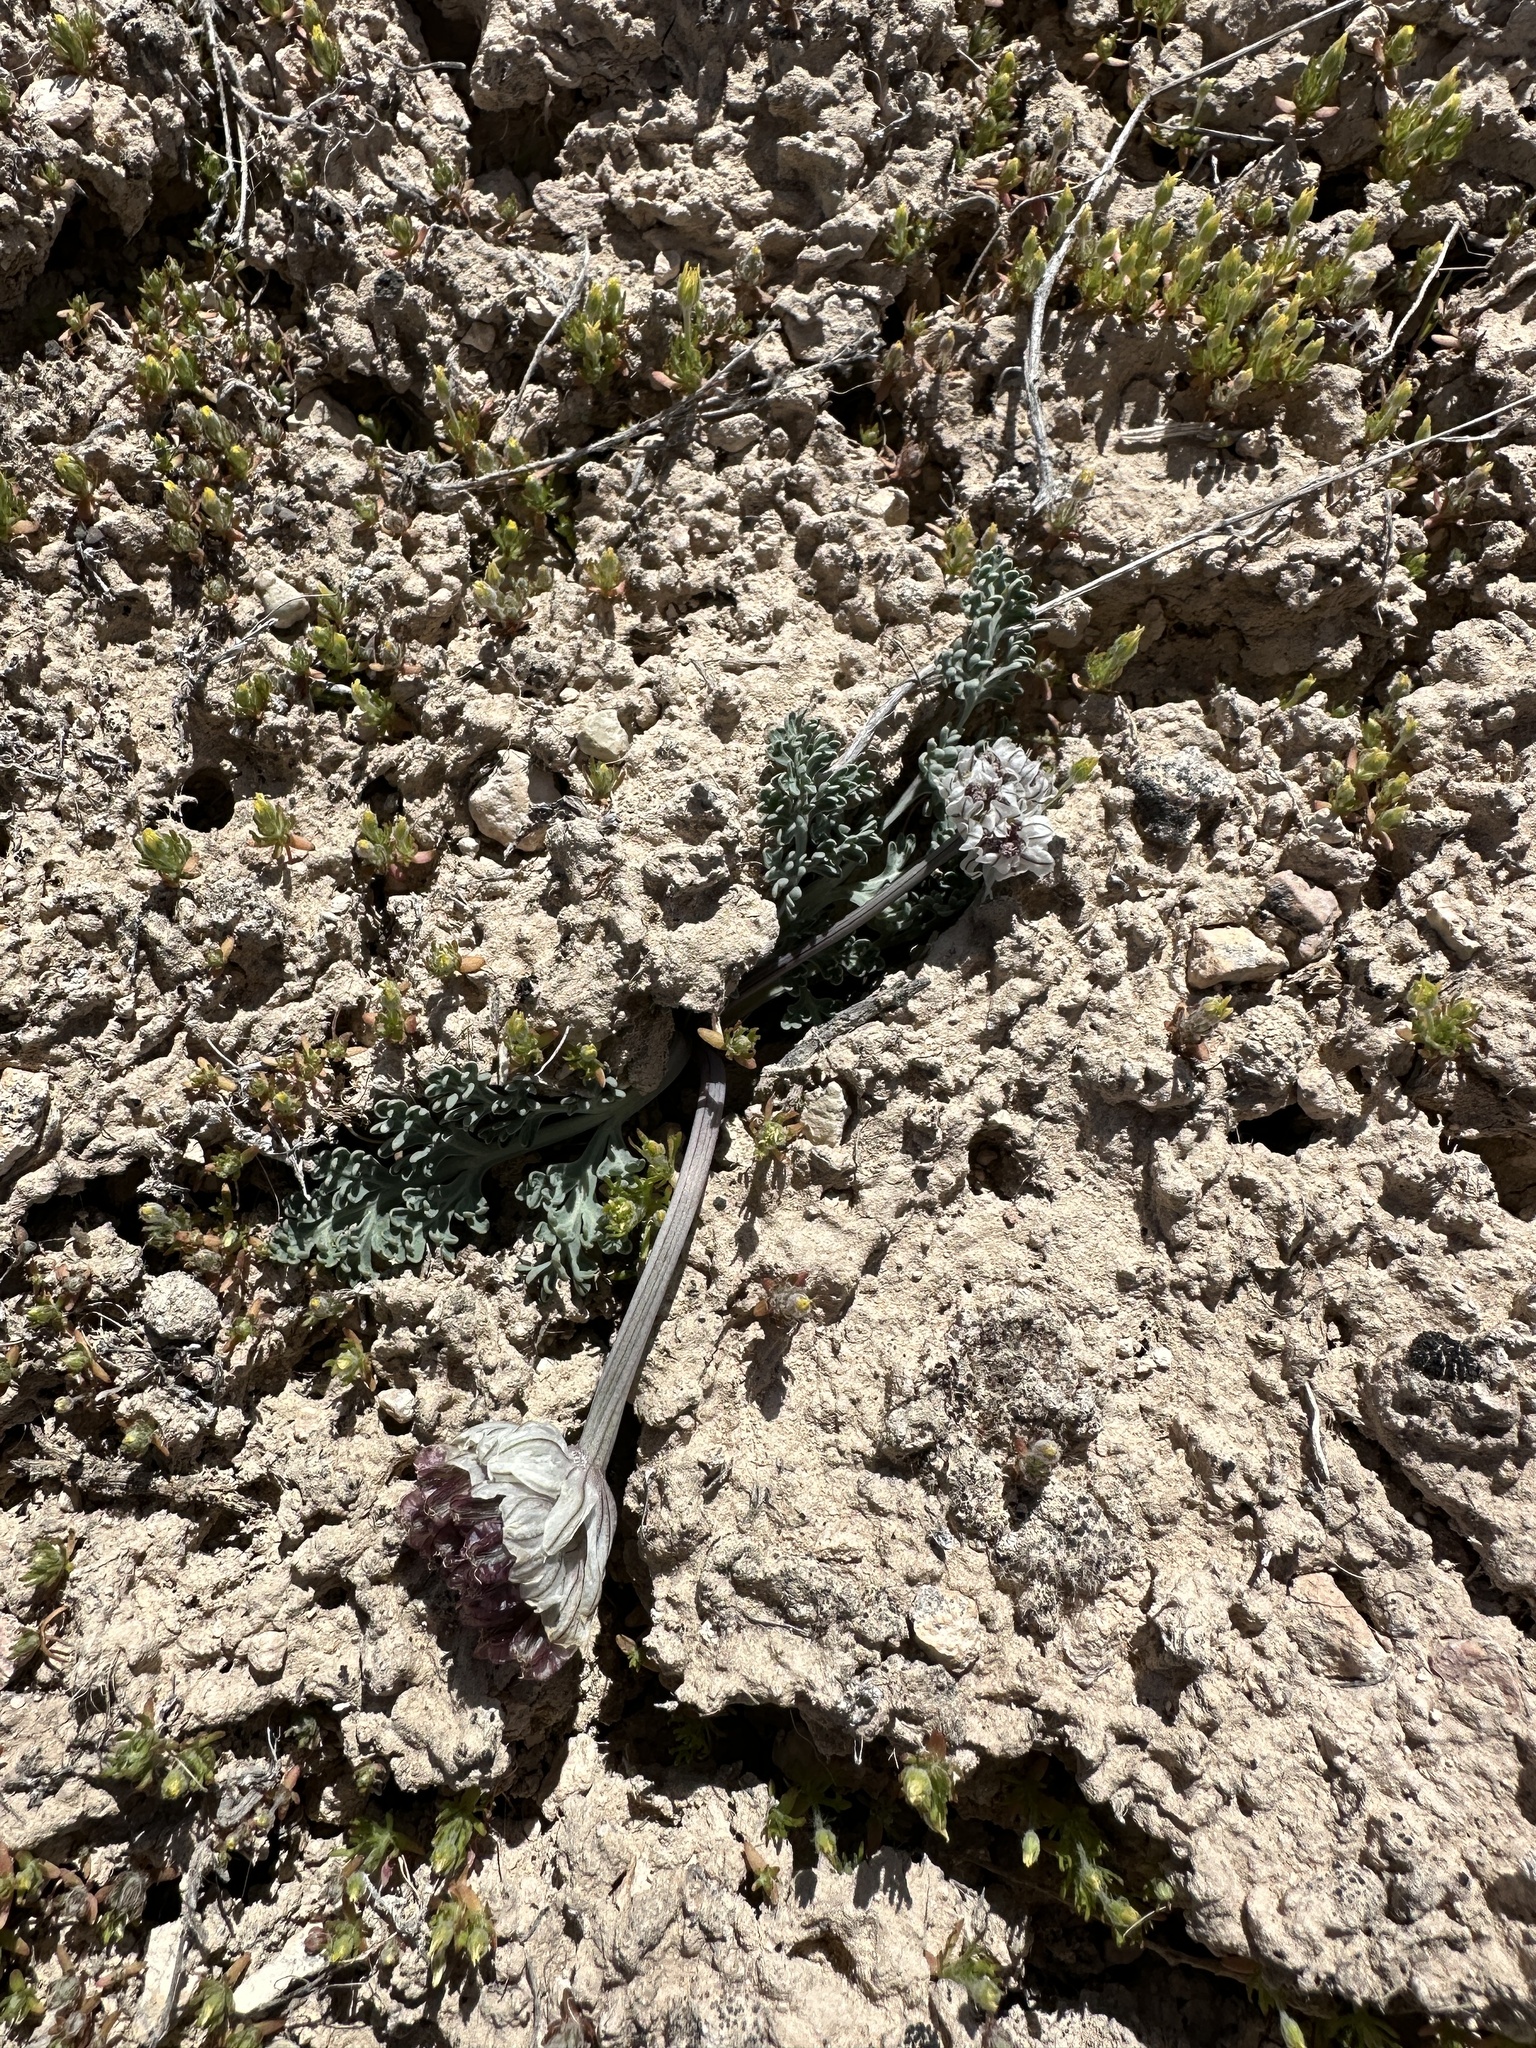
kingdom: Plantae
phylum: Tracheophyta
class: Magnoliopsida
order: Apiales
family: Apiaceae
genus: Vesper
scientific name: Vesper purpurascens
